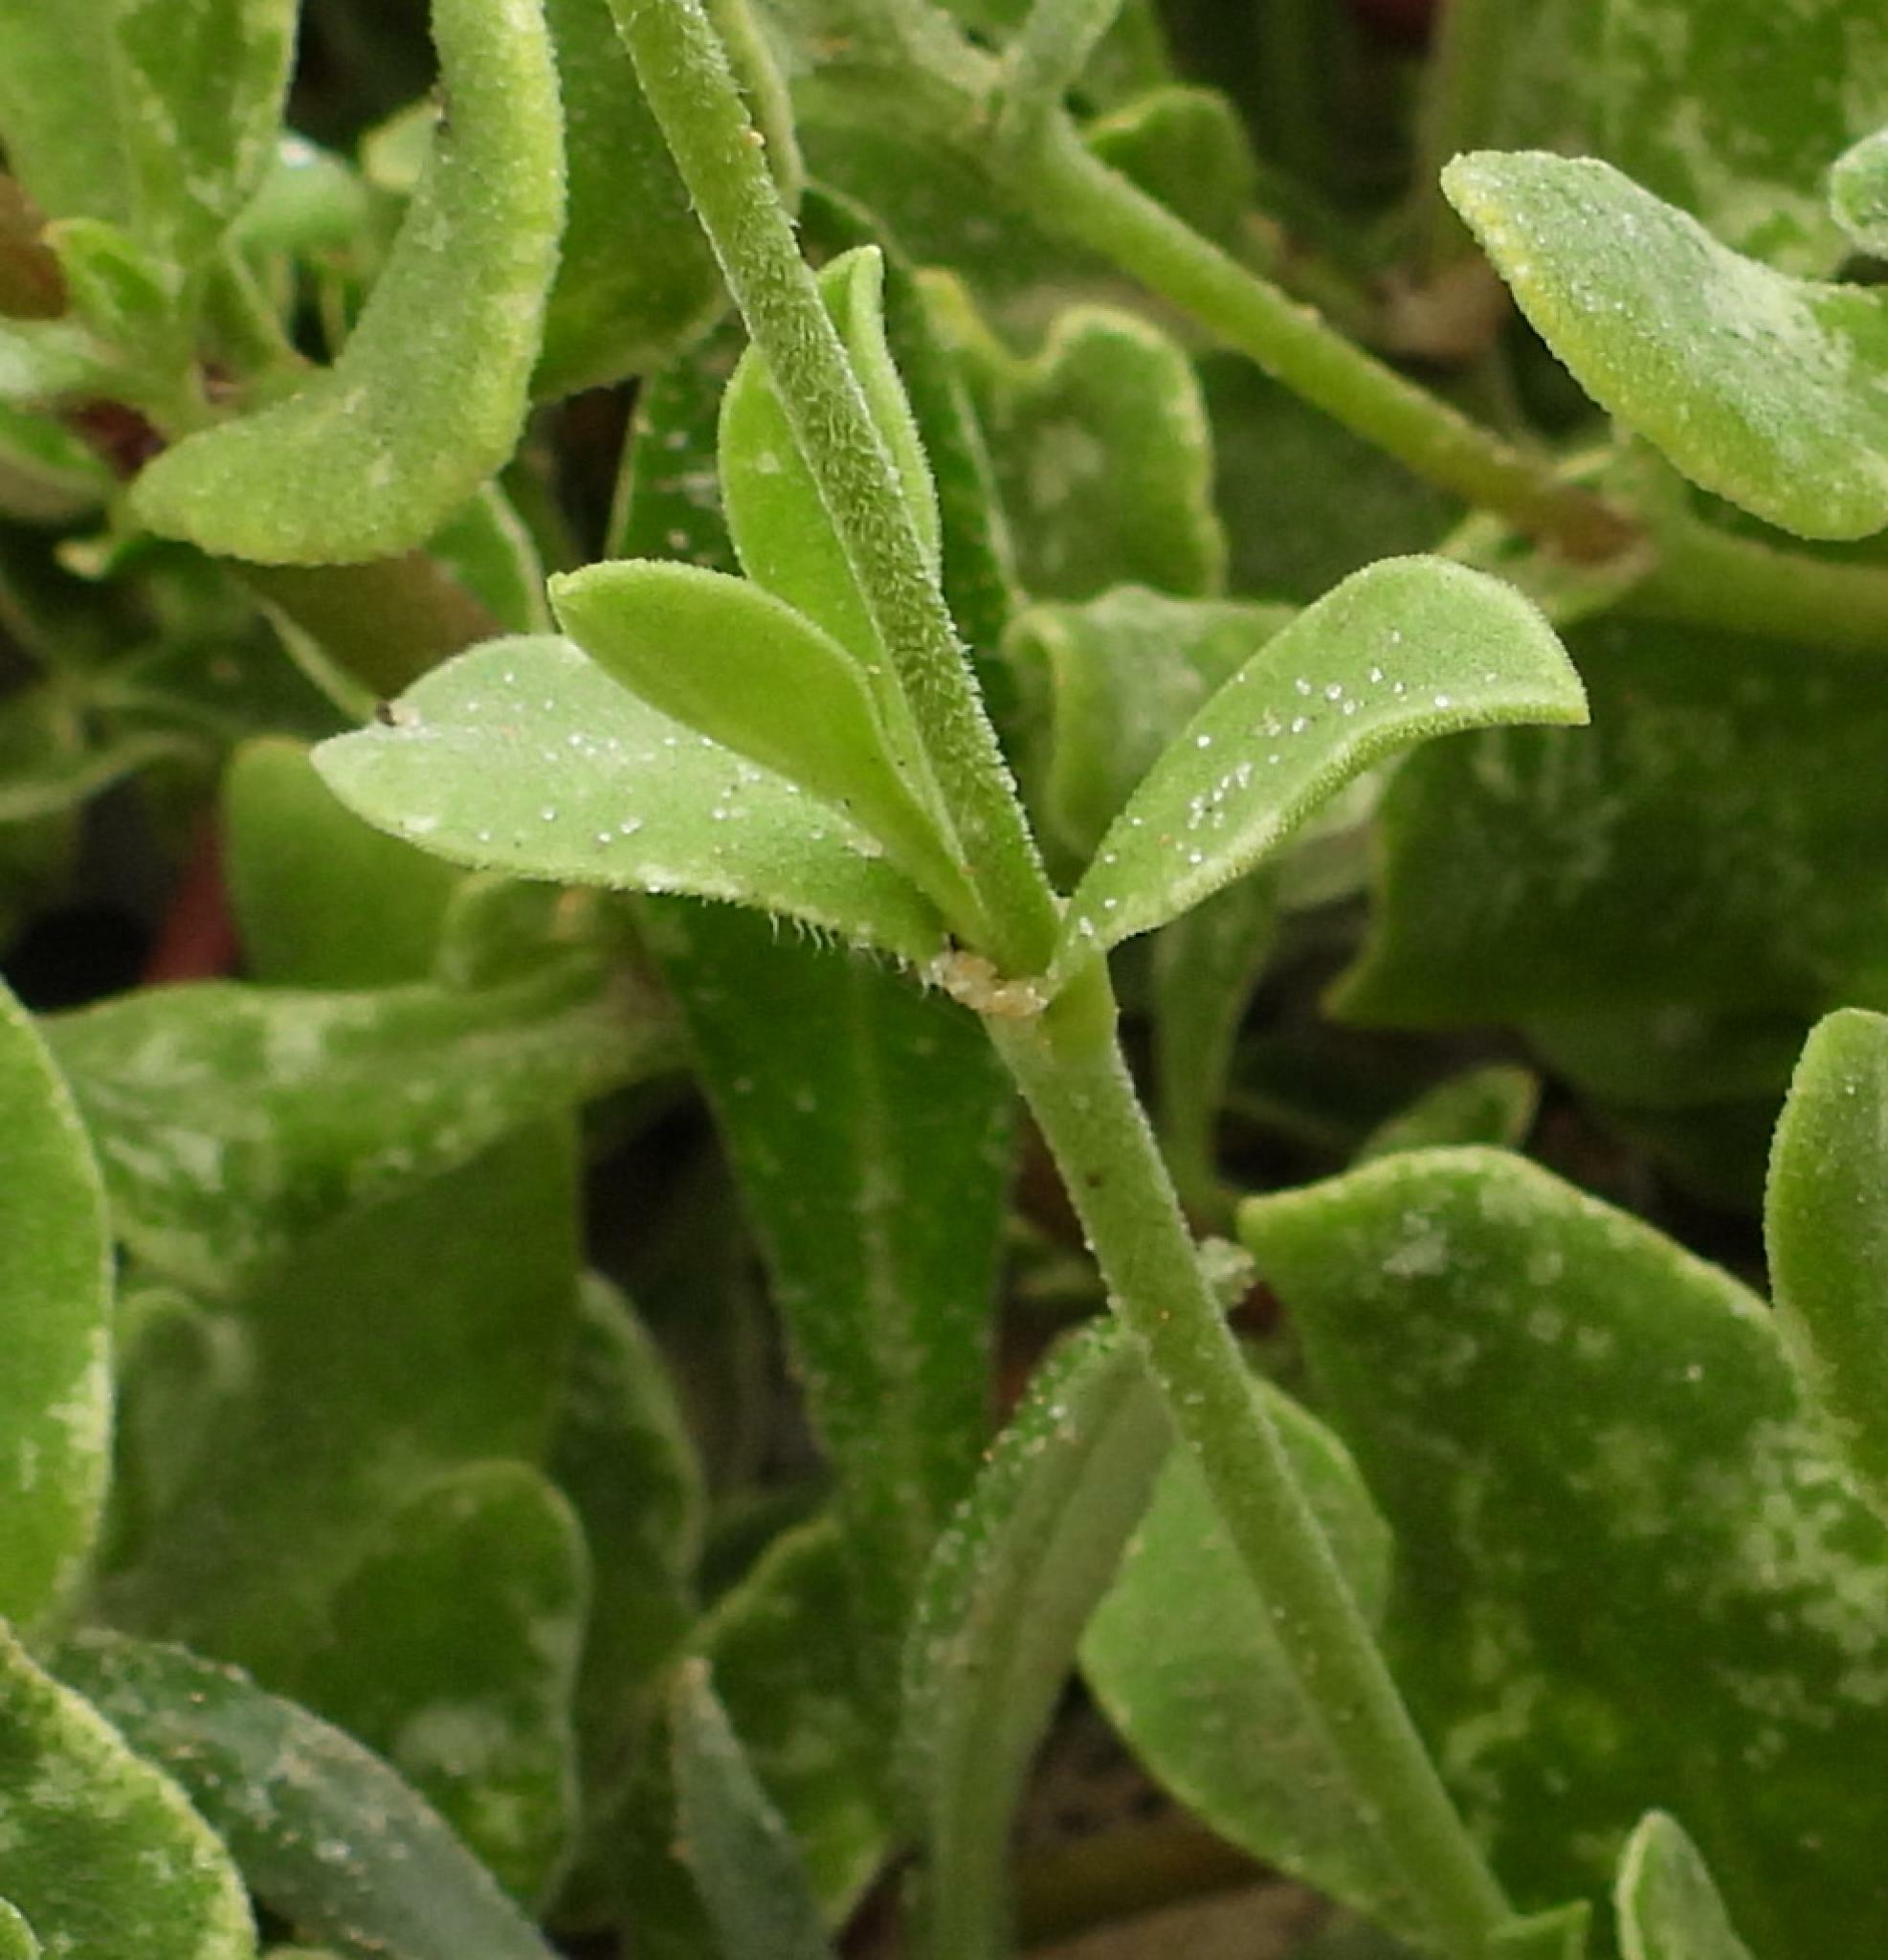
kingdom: Plantae
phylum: Tracheophyta
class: Magnoliopsida
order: Caryophyllales
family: Caryophyllaceae
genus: Silene
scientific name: Silene crassifolia
